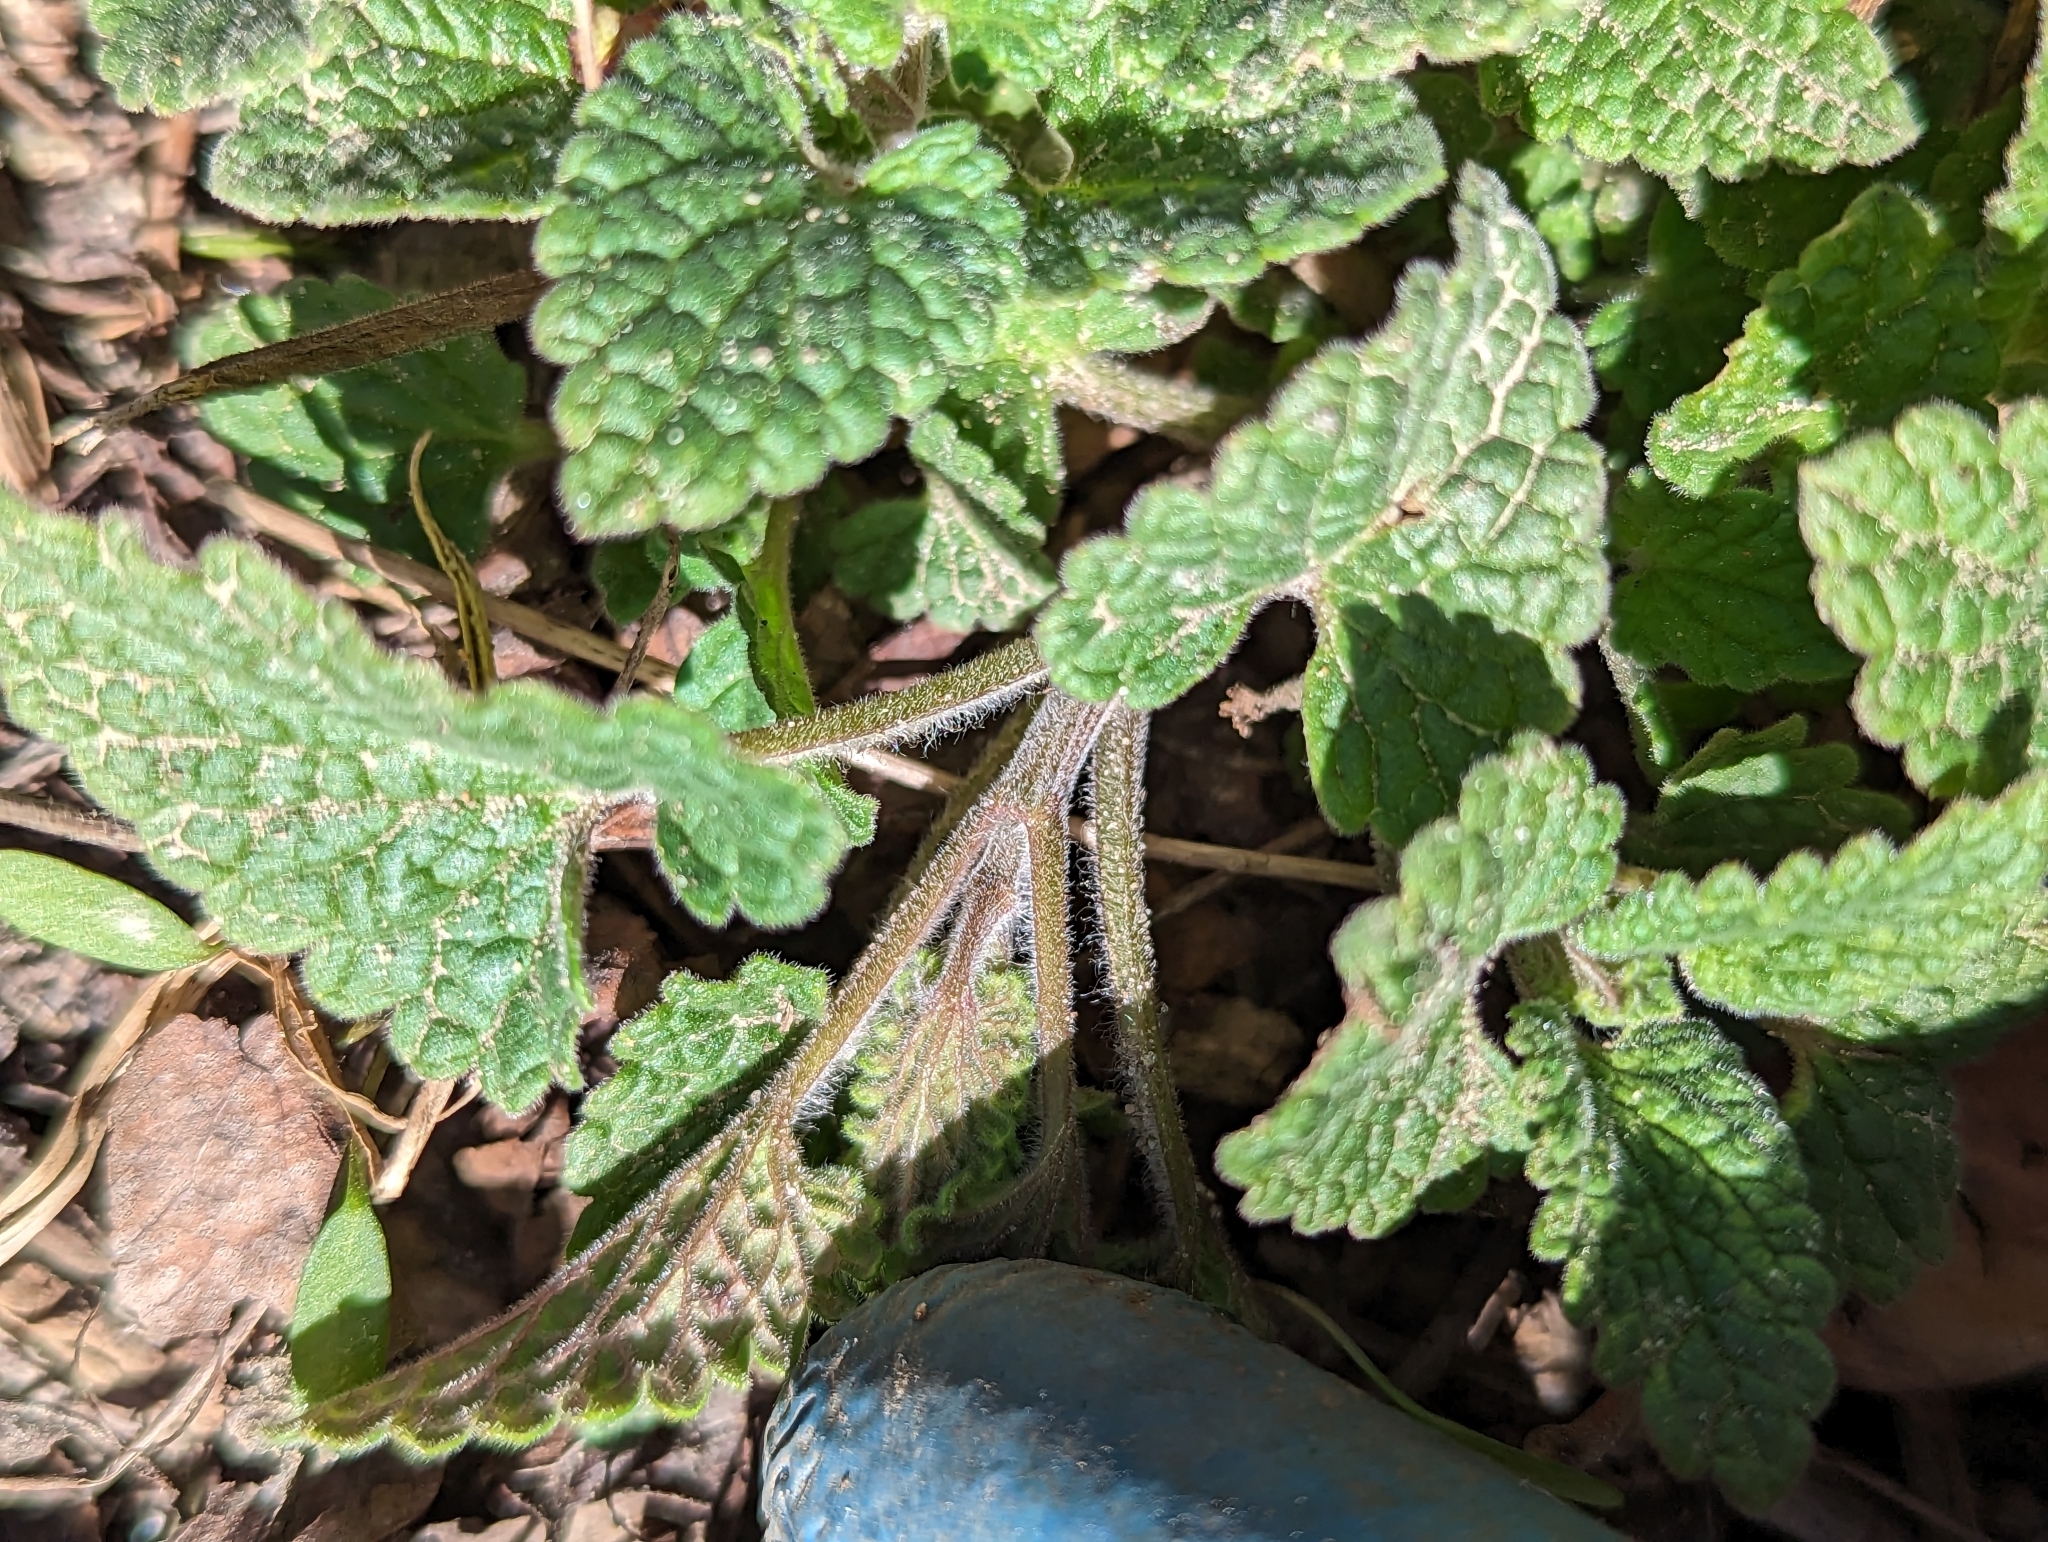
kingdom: Plantae
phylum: Tracheophyta
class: Magnoliopsida
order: Lamiales
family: Lamiaceae
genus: Nepeta
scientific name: Nepeta cataria
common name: Catnip
